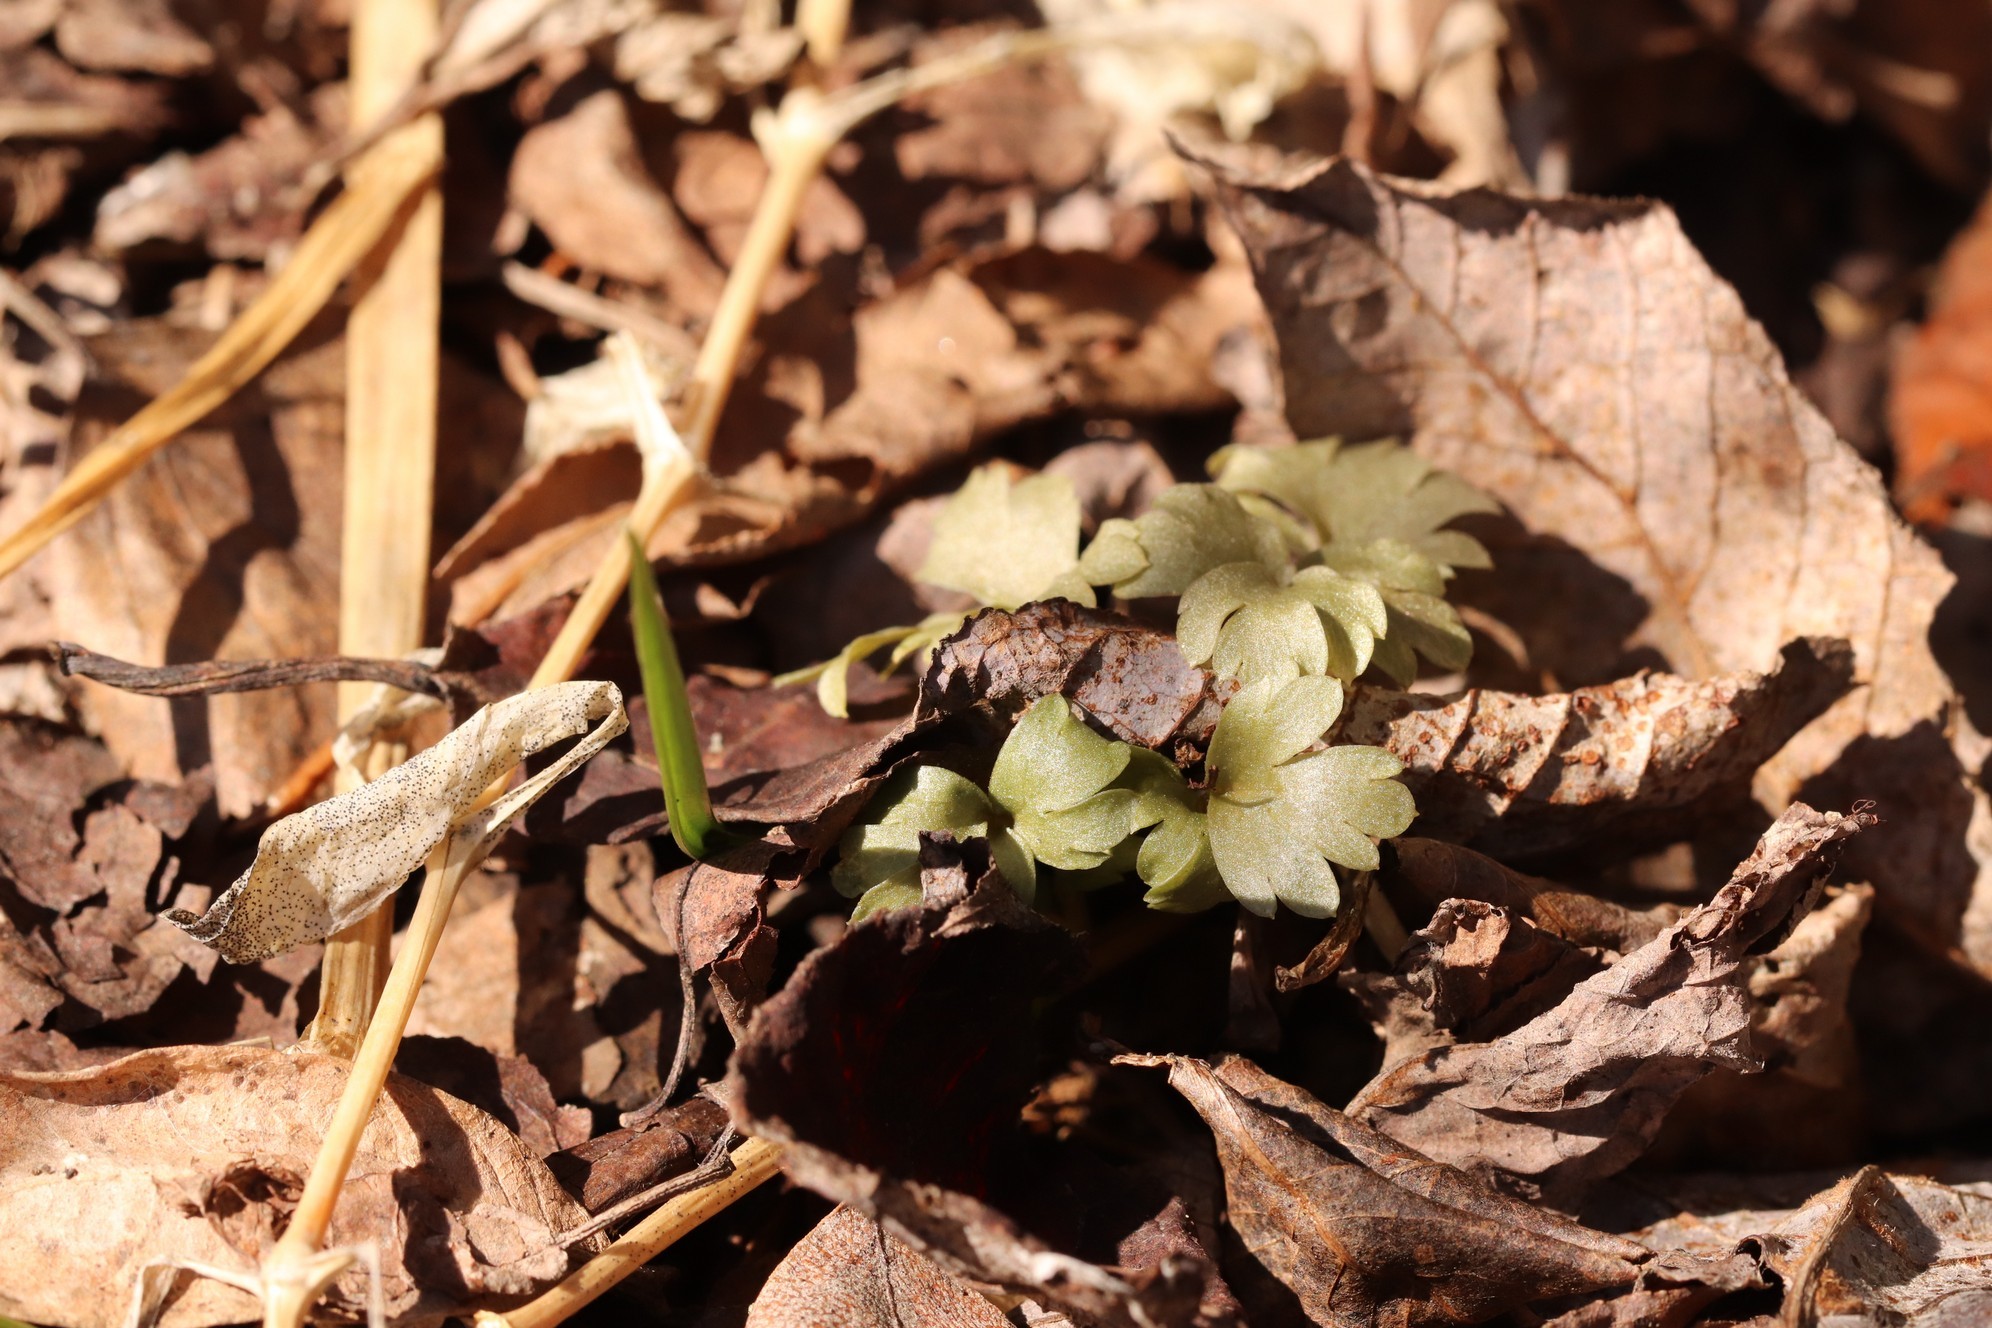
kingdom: Plantae
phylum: Tracheophyta
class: Magnoliopsida
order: Dipsacales
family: Viburnaceae
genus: Adoxa
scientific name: Adoxa moschatellina
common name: Moschatel
